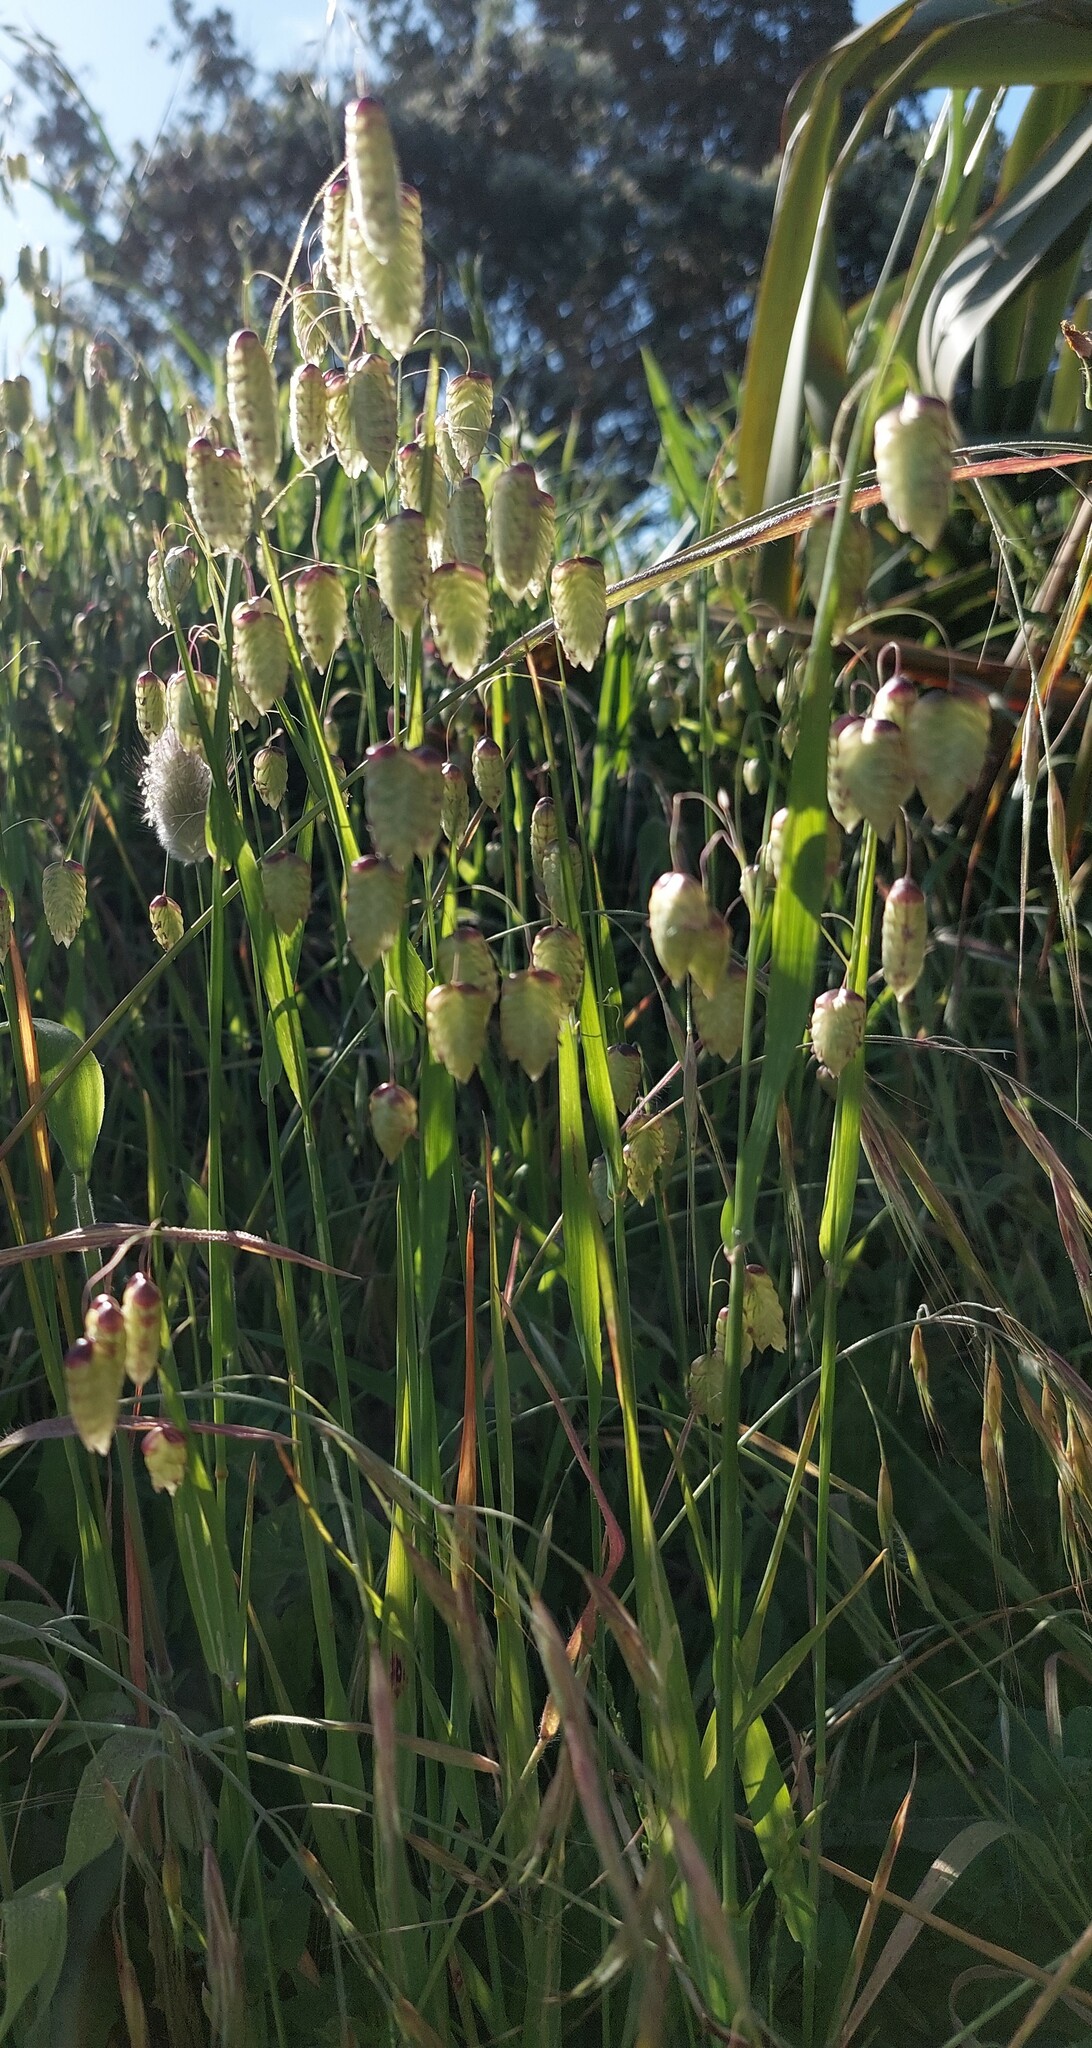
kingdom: Plantae
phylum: Tracheophyta
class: Liliopsida
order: Poales
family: Poaceae
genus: Briza
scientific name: Briza maxima
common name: Big quakinggrass
